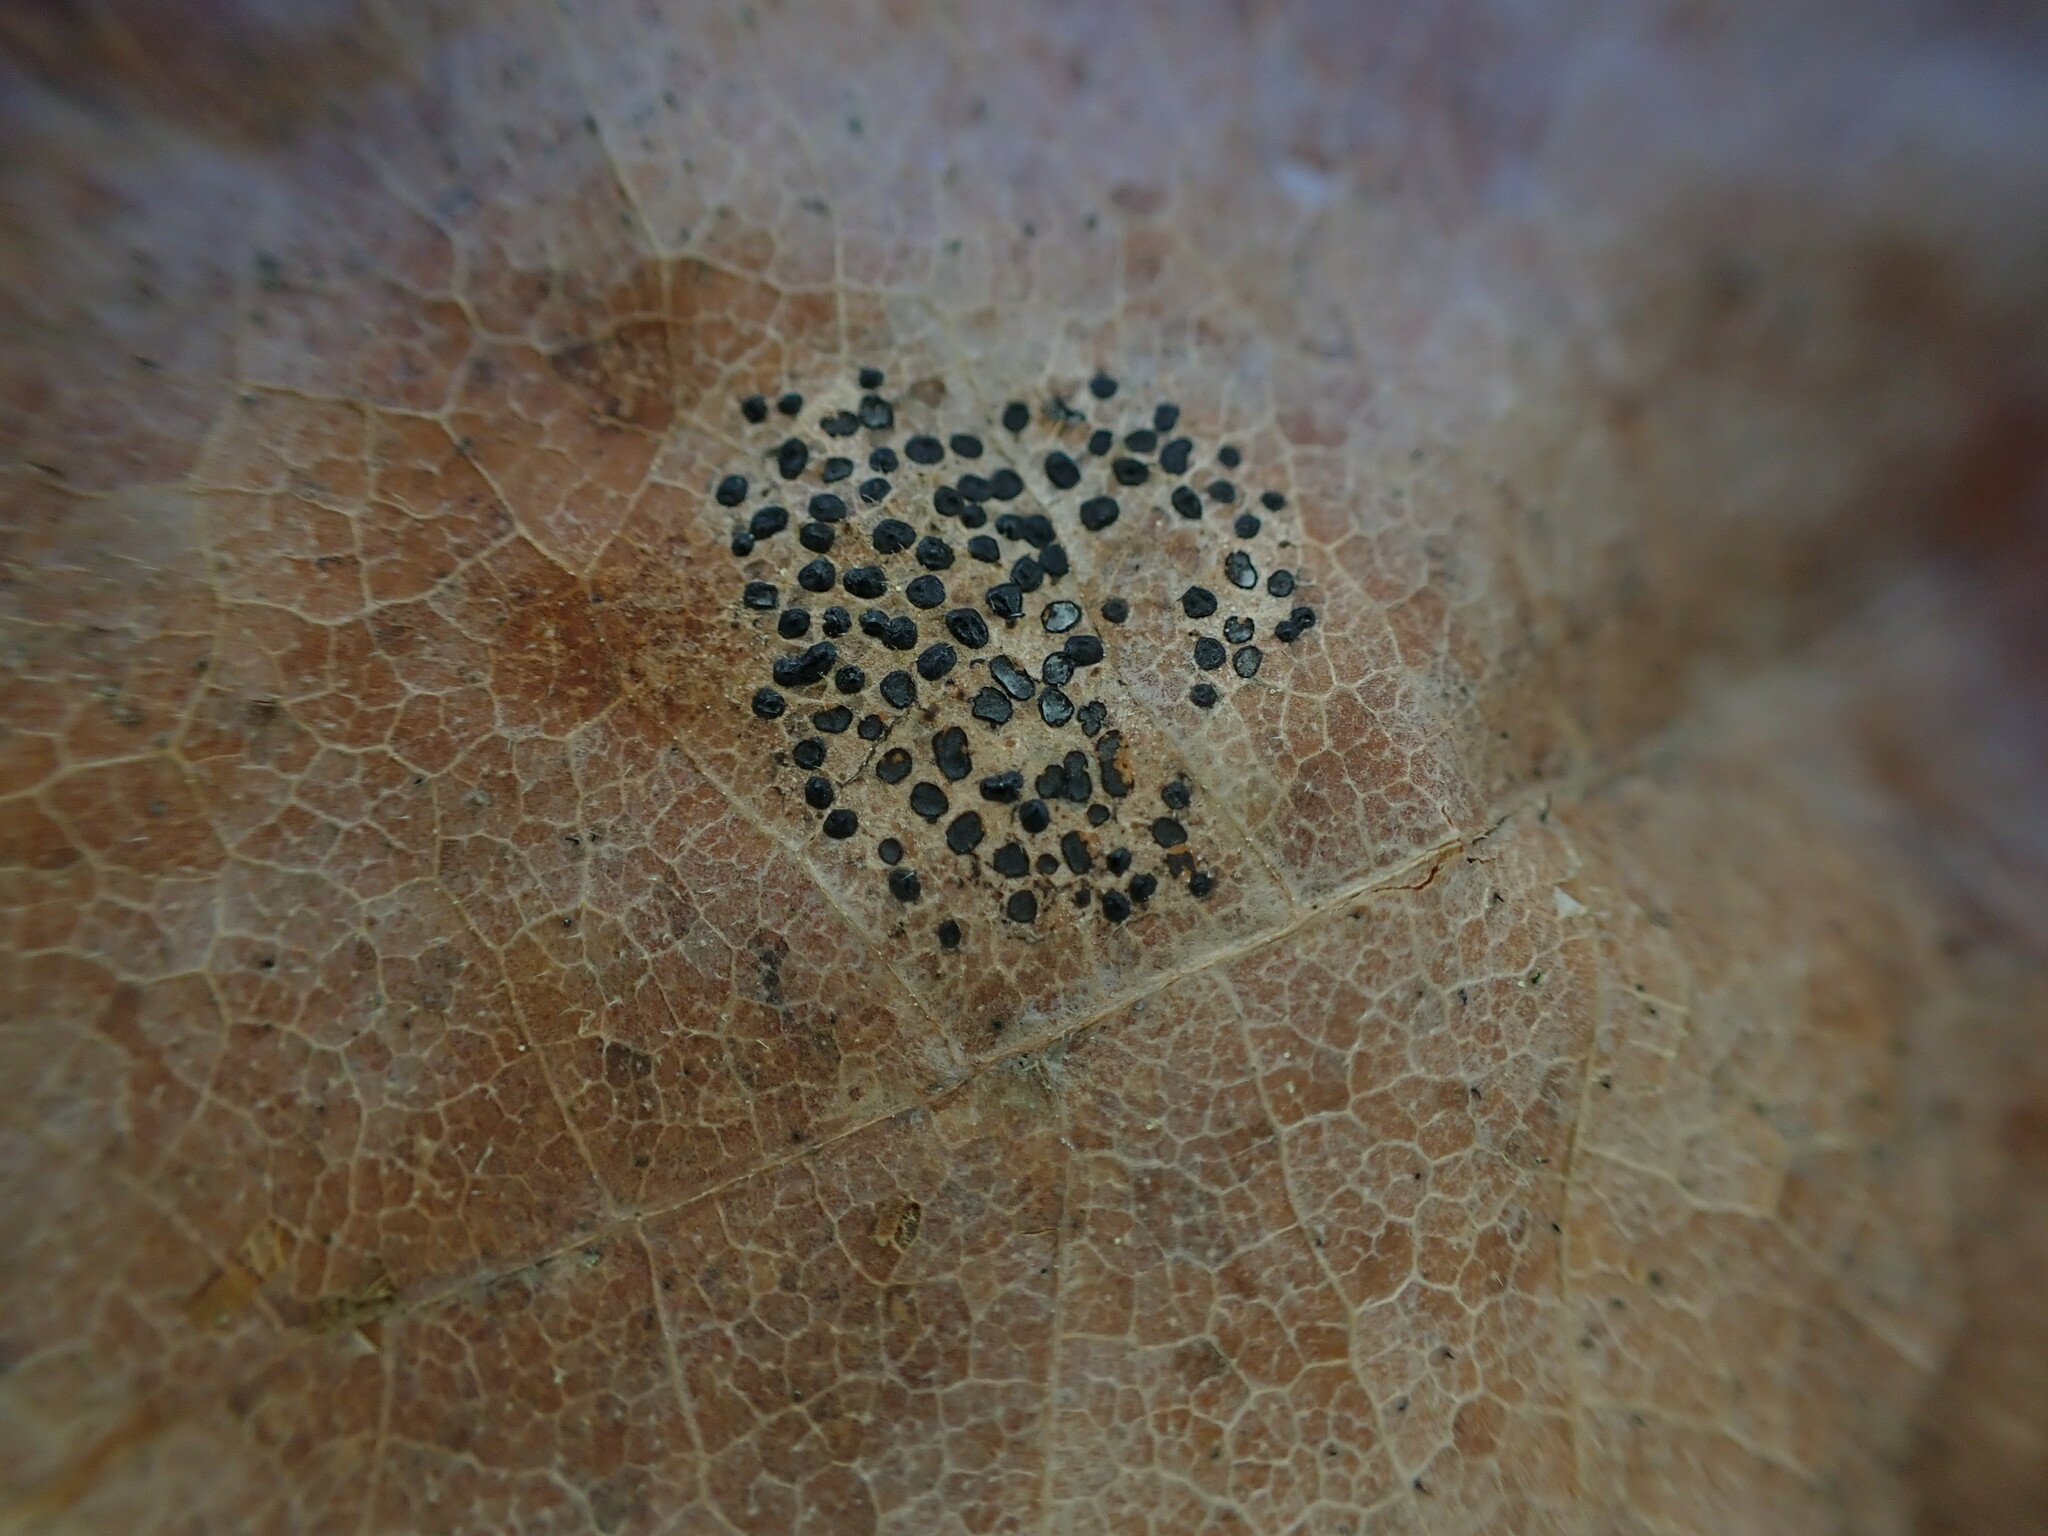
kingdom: Fungi
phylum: Ascomycota
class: Leotiomycetes
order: Rhytismatales
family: Rhytismataceae
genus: Rhytisma
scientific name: Rhytisma punctatum
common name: Speckled tar spot
